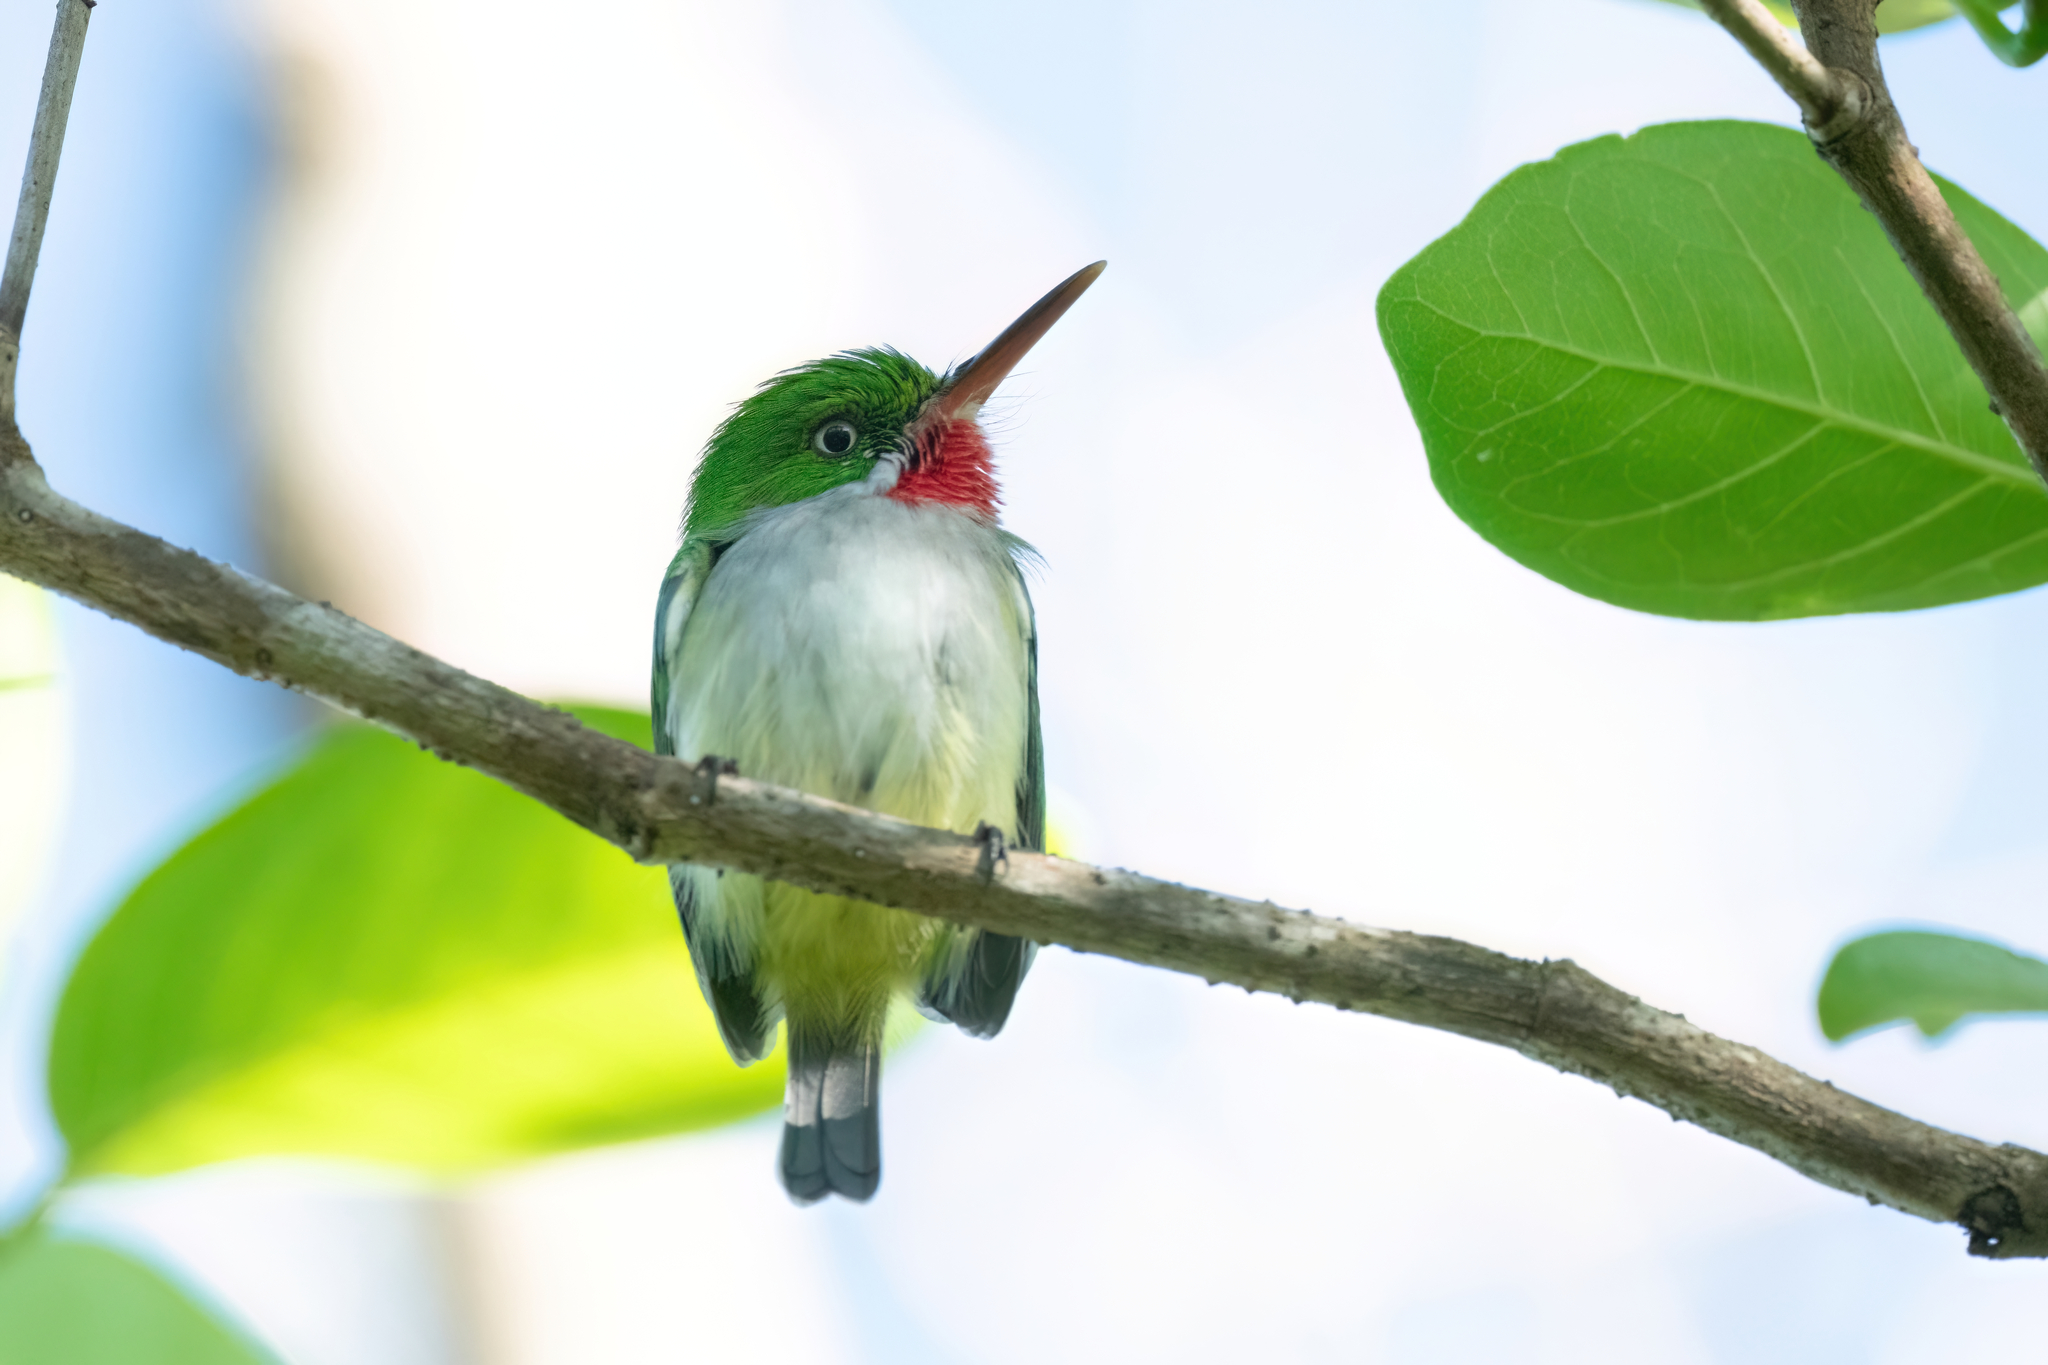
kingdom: Animalia
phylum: Chordata
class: Aves
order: Coraciiformes
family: Todidae
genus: Todus
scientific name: Todus mexicanus
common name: Puerto rican tody
